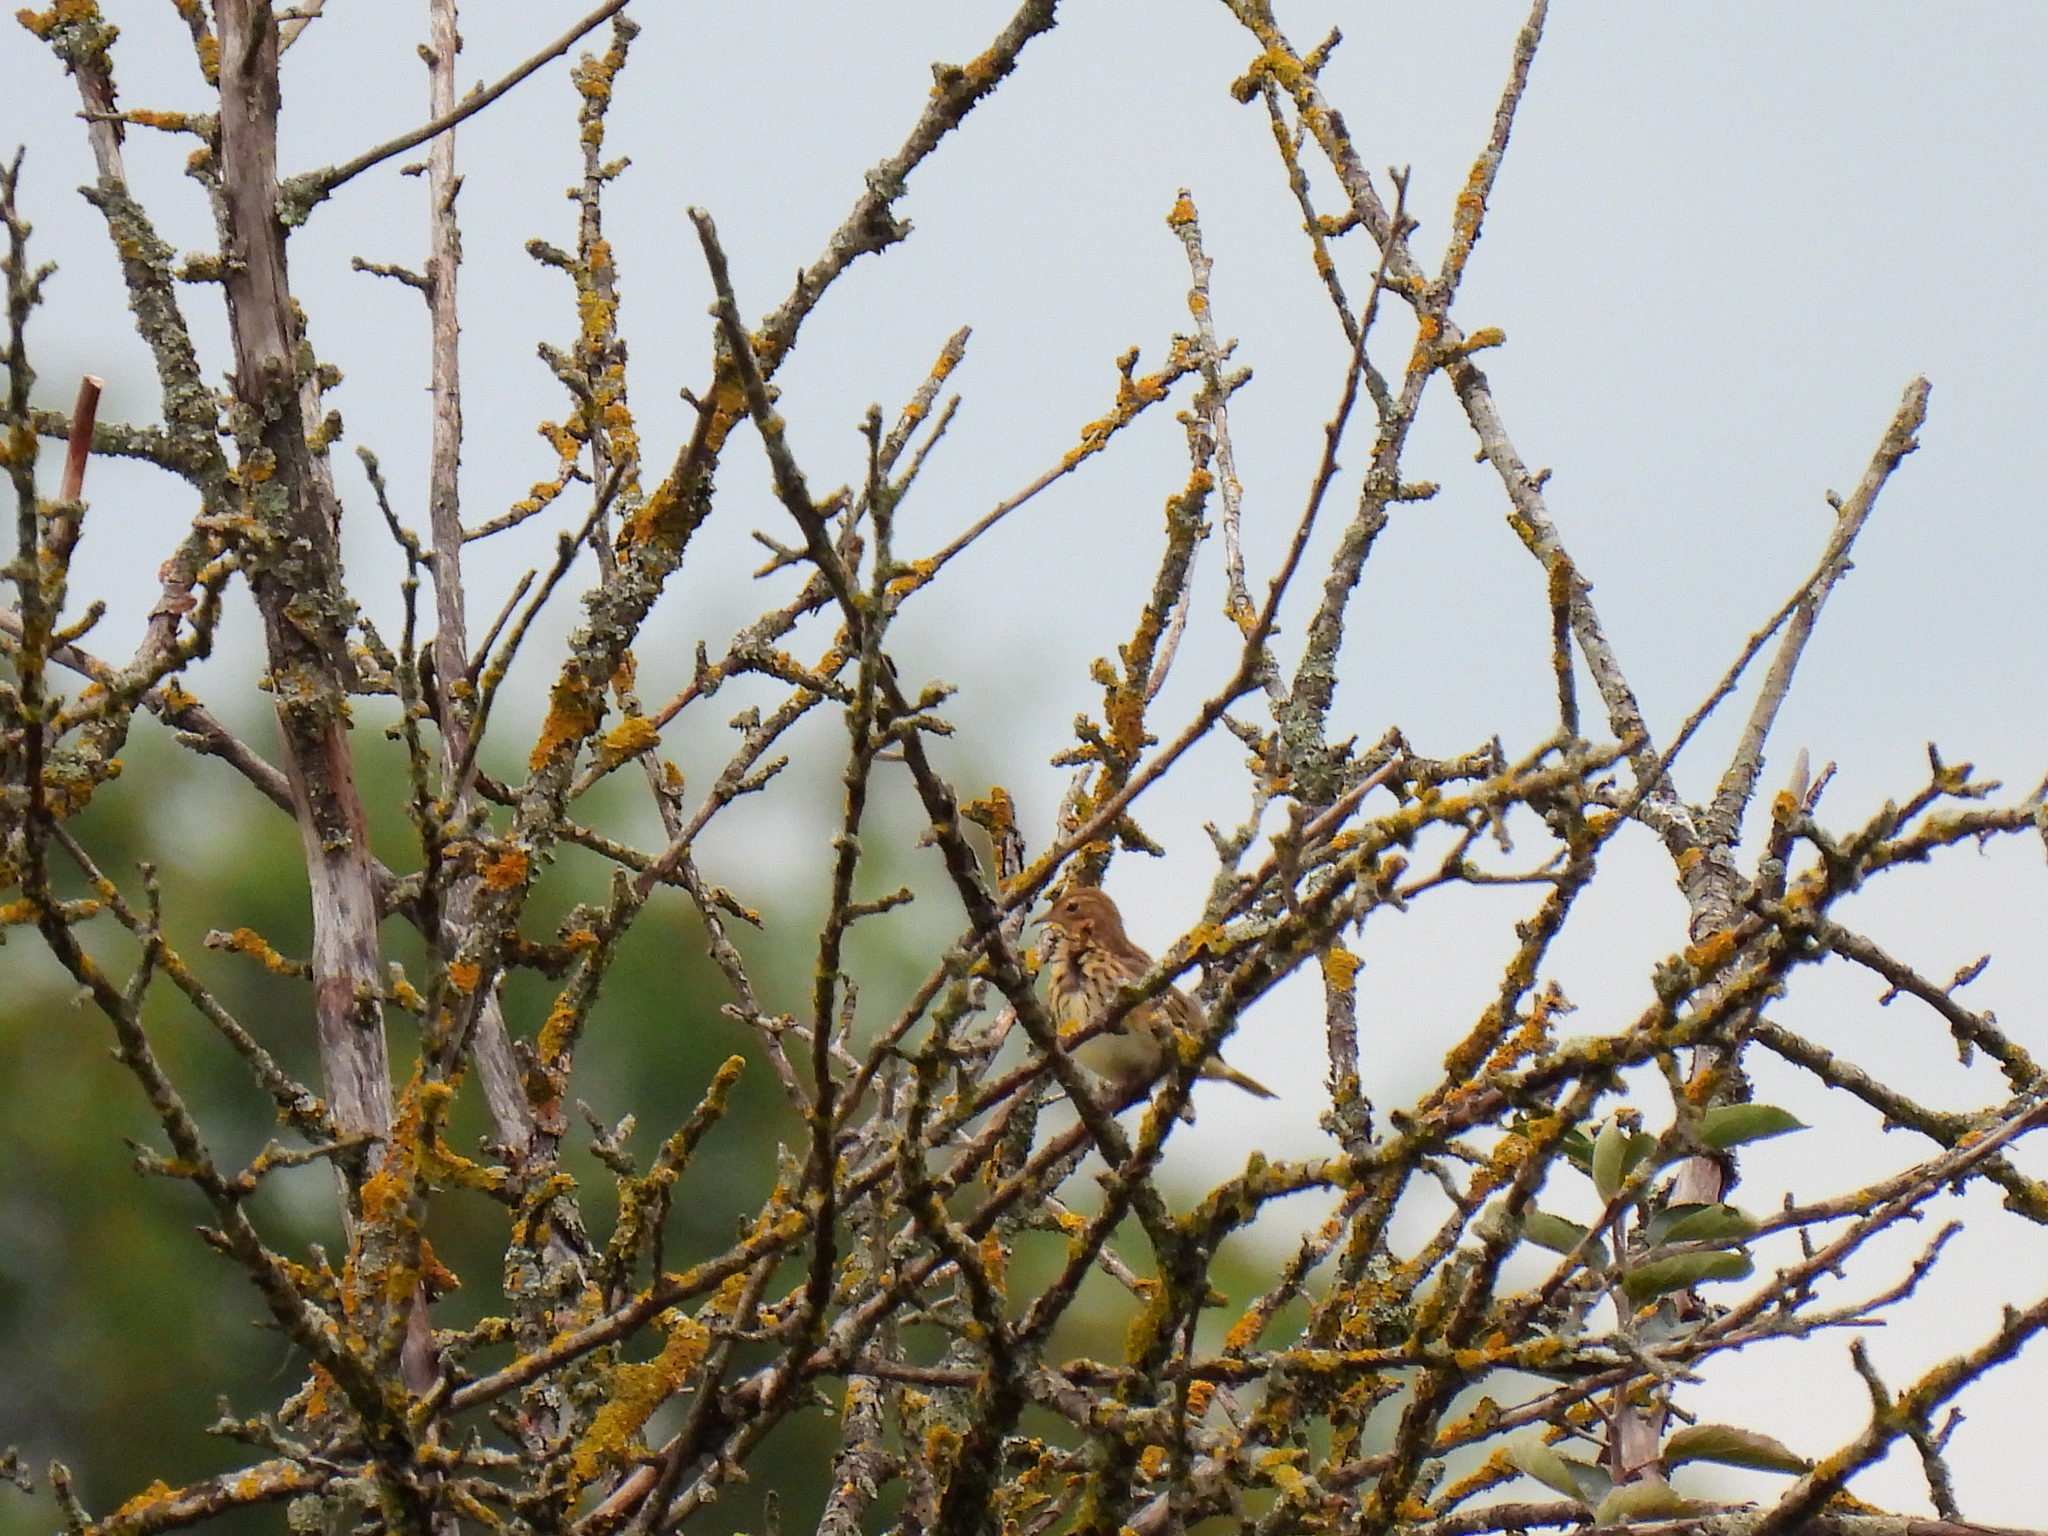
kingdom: Animalia
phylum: Chordata
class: Aves
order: Passeriformes
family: Motacillidae
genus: Anthus
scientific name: Anthus trivialis
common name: Tree pipit
